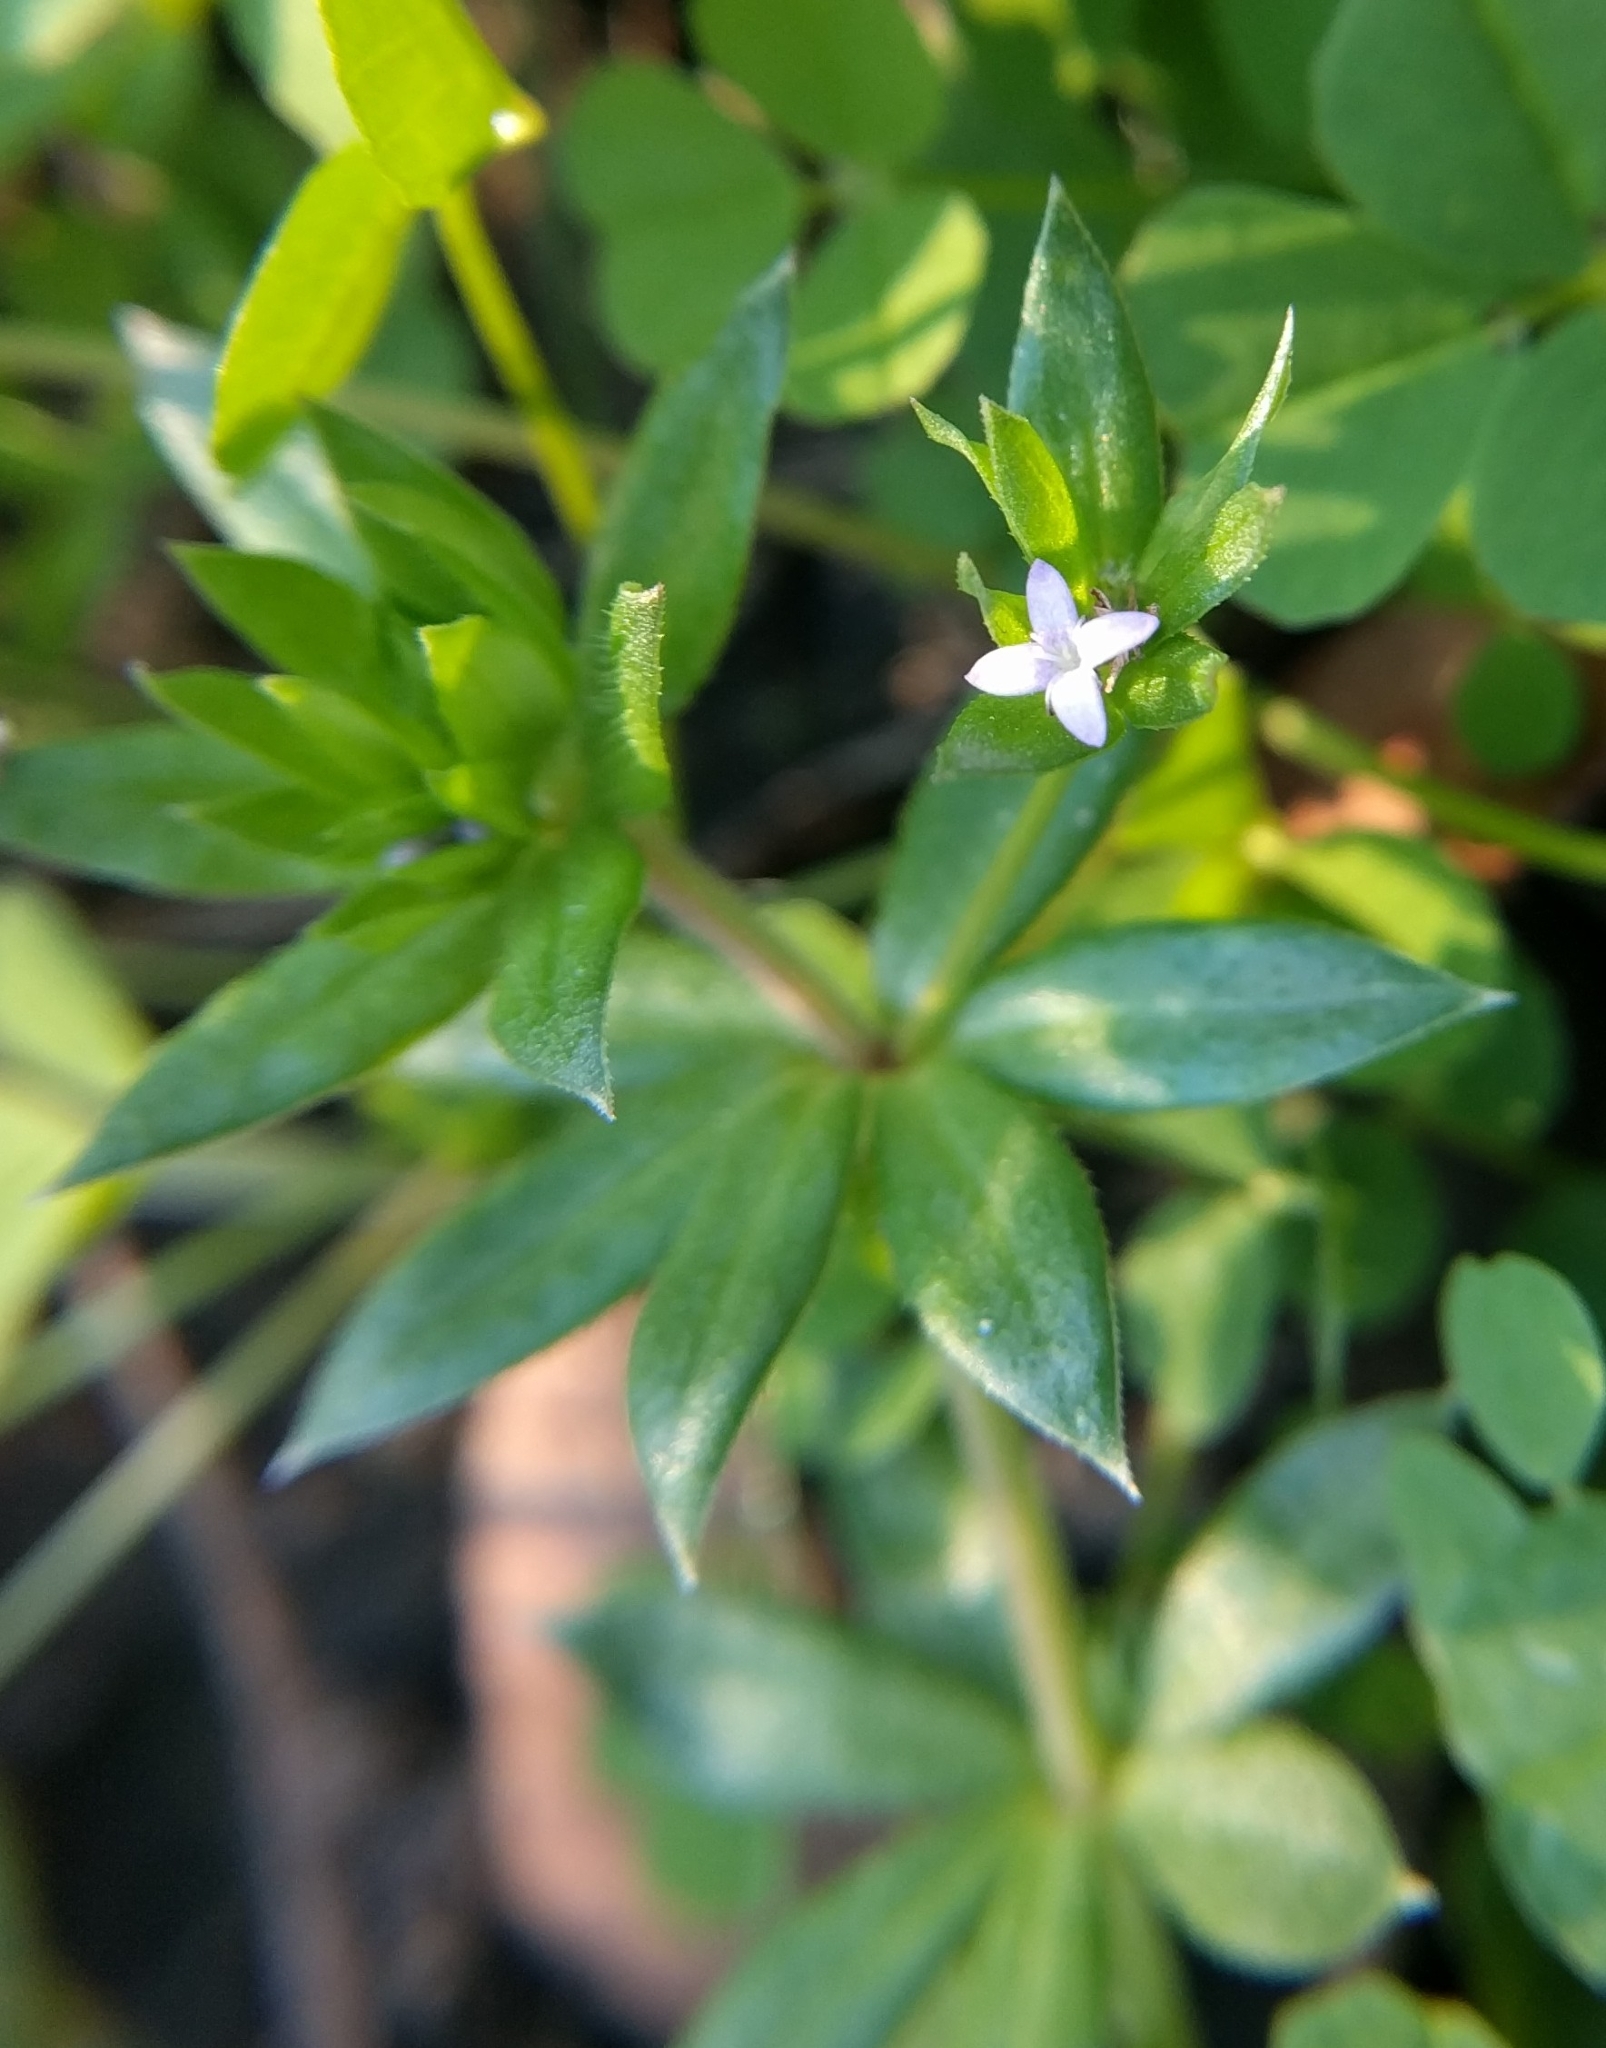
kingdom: Plantae
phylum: Tracheophyta
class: Magnoliopsida
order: Gentianales
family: Rubiaceae
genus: Sherardia
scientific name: Sherardia arvensis
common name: Field madder
